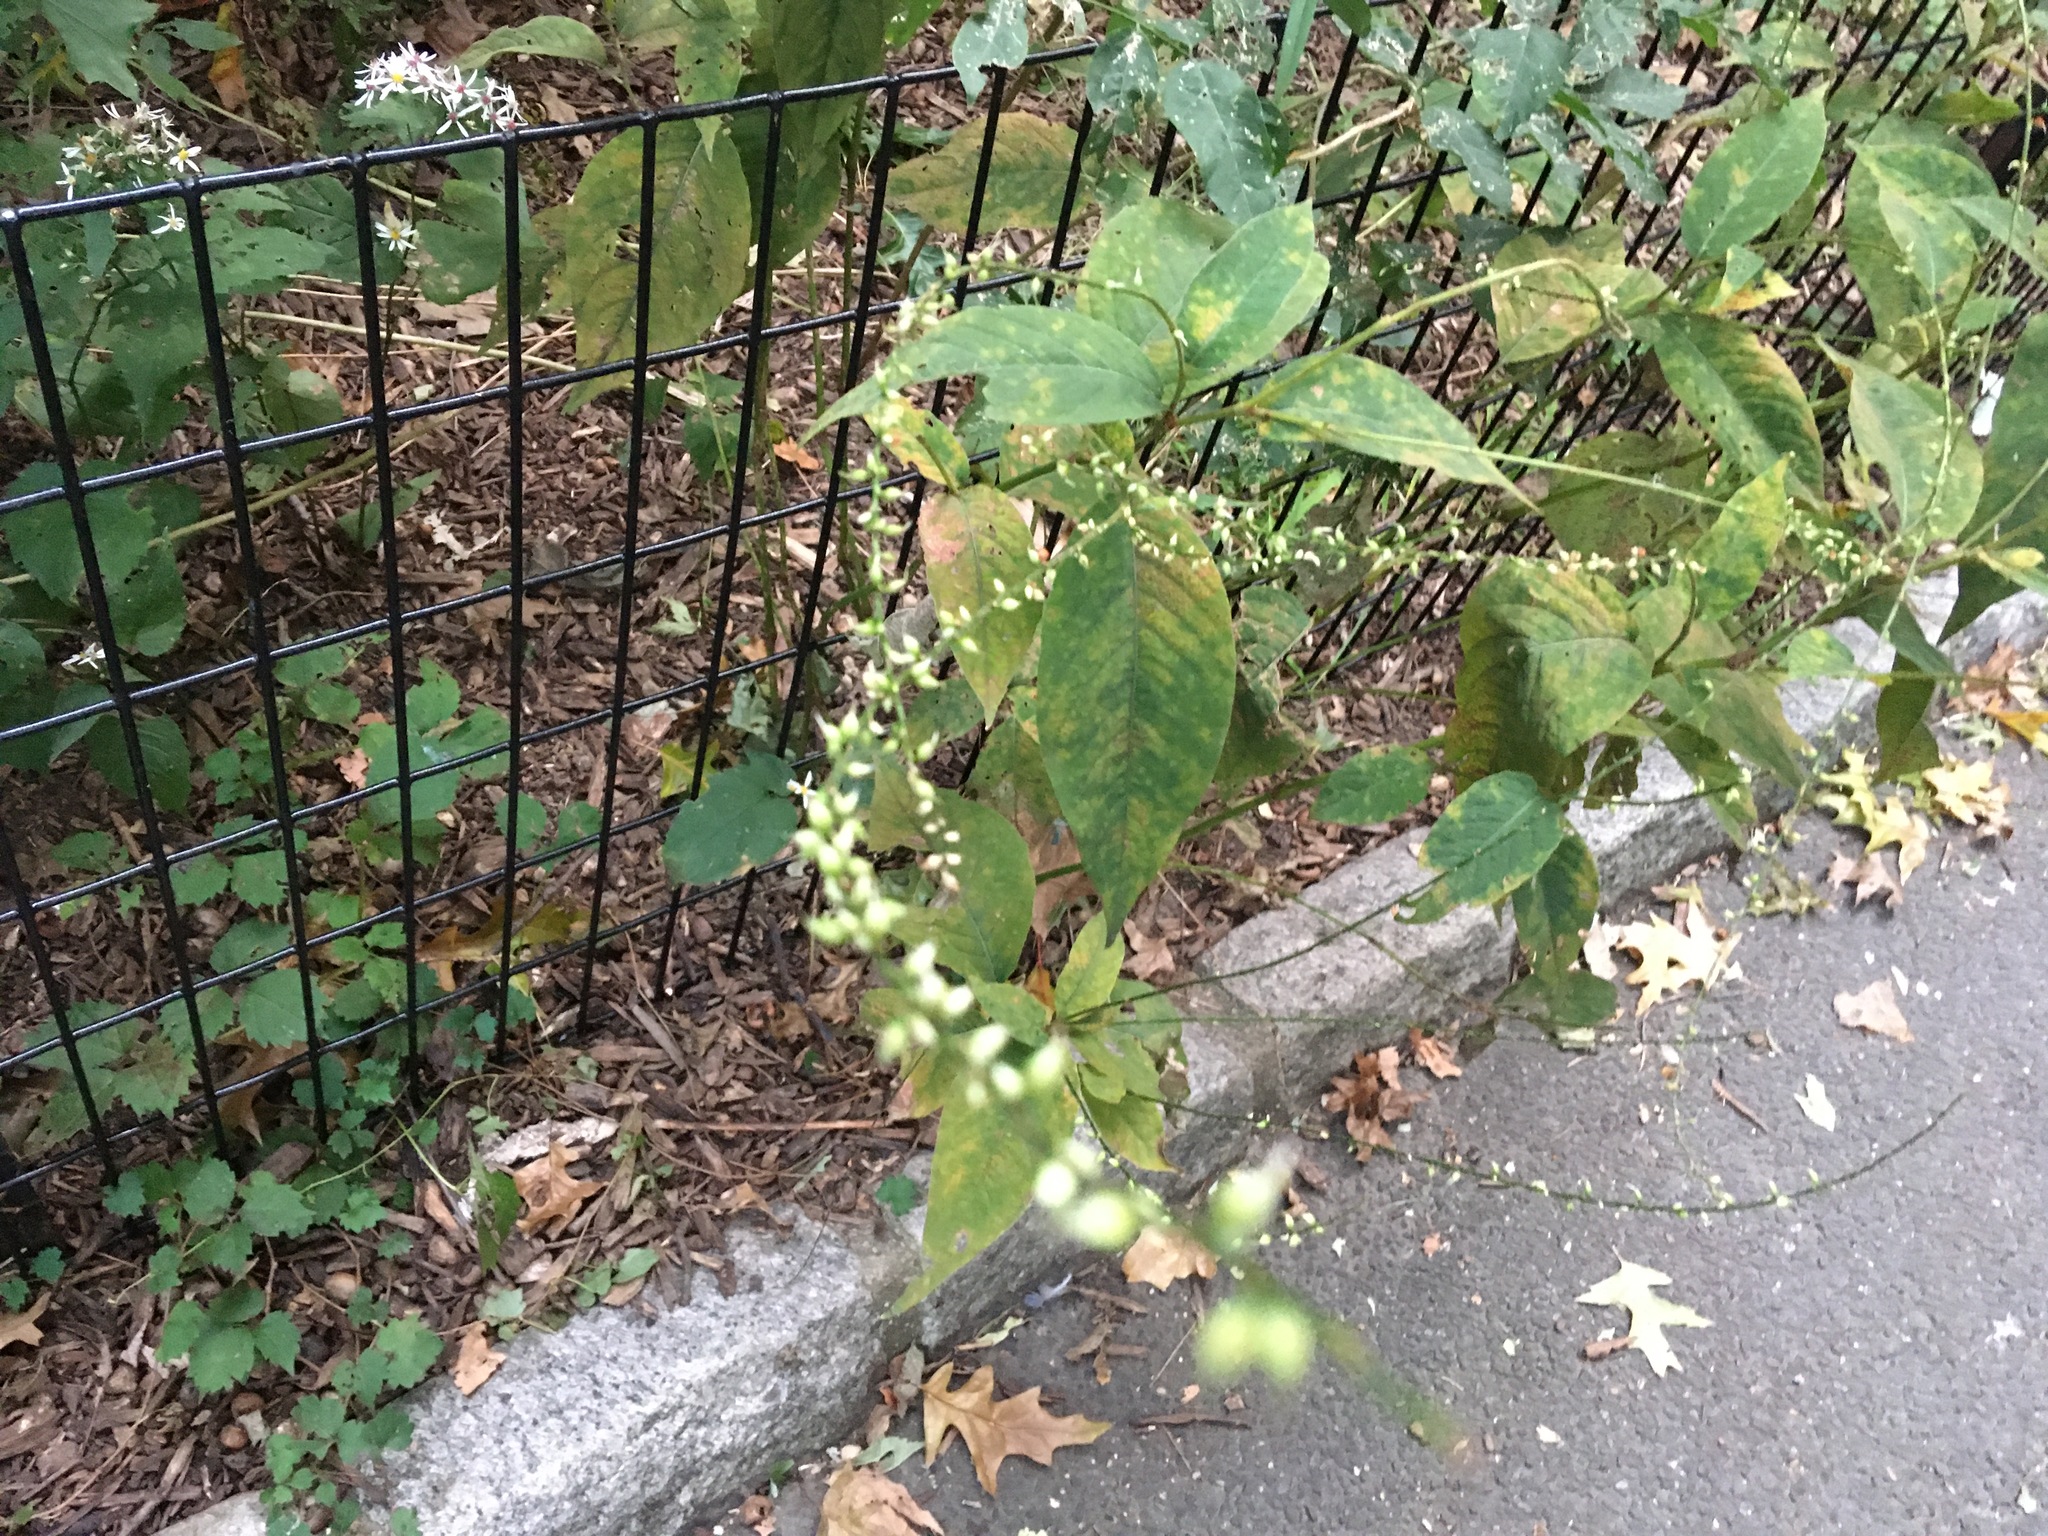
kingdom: Plantae
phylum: Tracheophyta
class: Magnoliopsida
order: Caryophyllales
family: Polygonaceae
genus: Persicaria
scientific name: Persicaria virginiana
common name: Jumpseed
